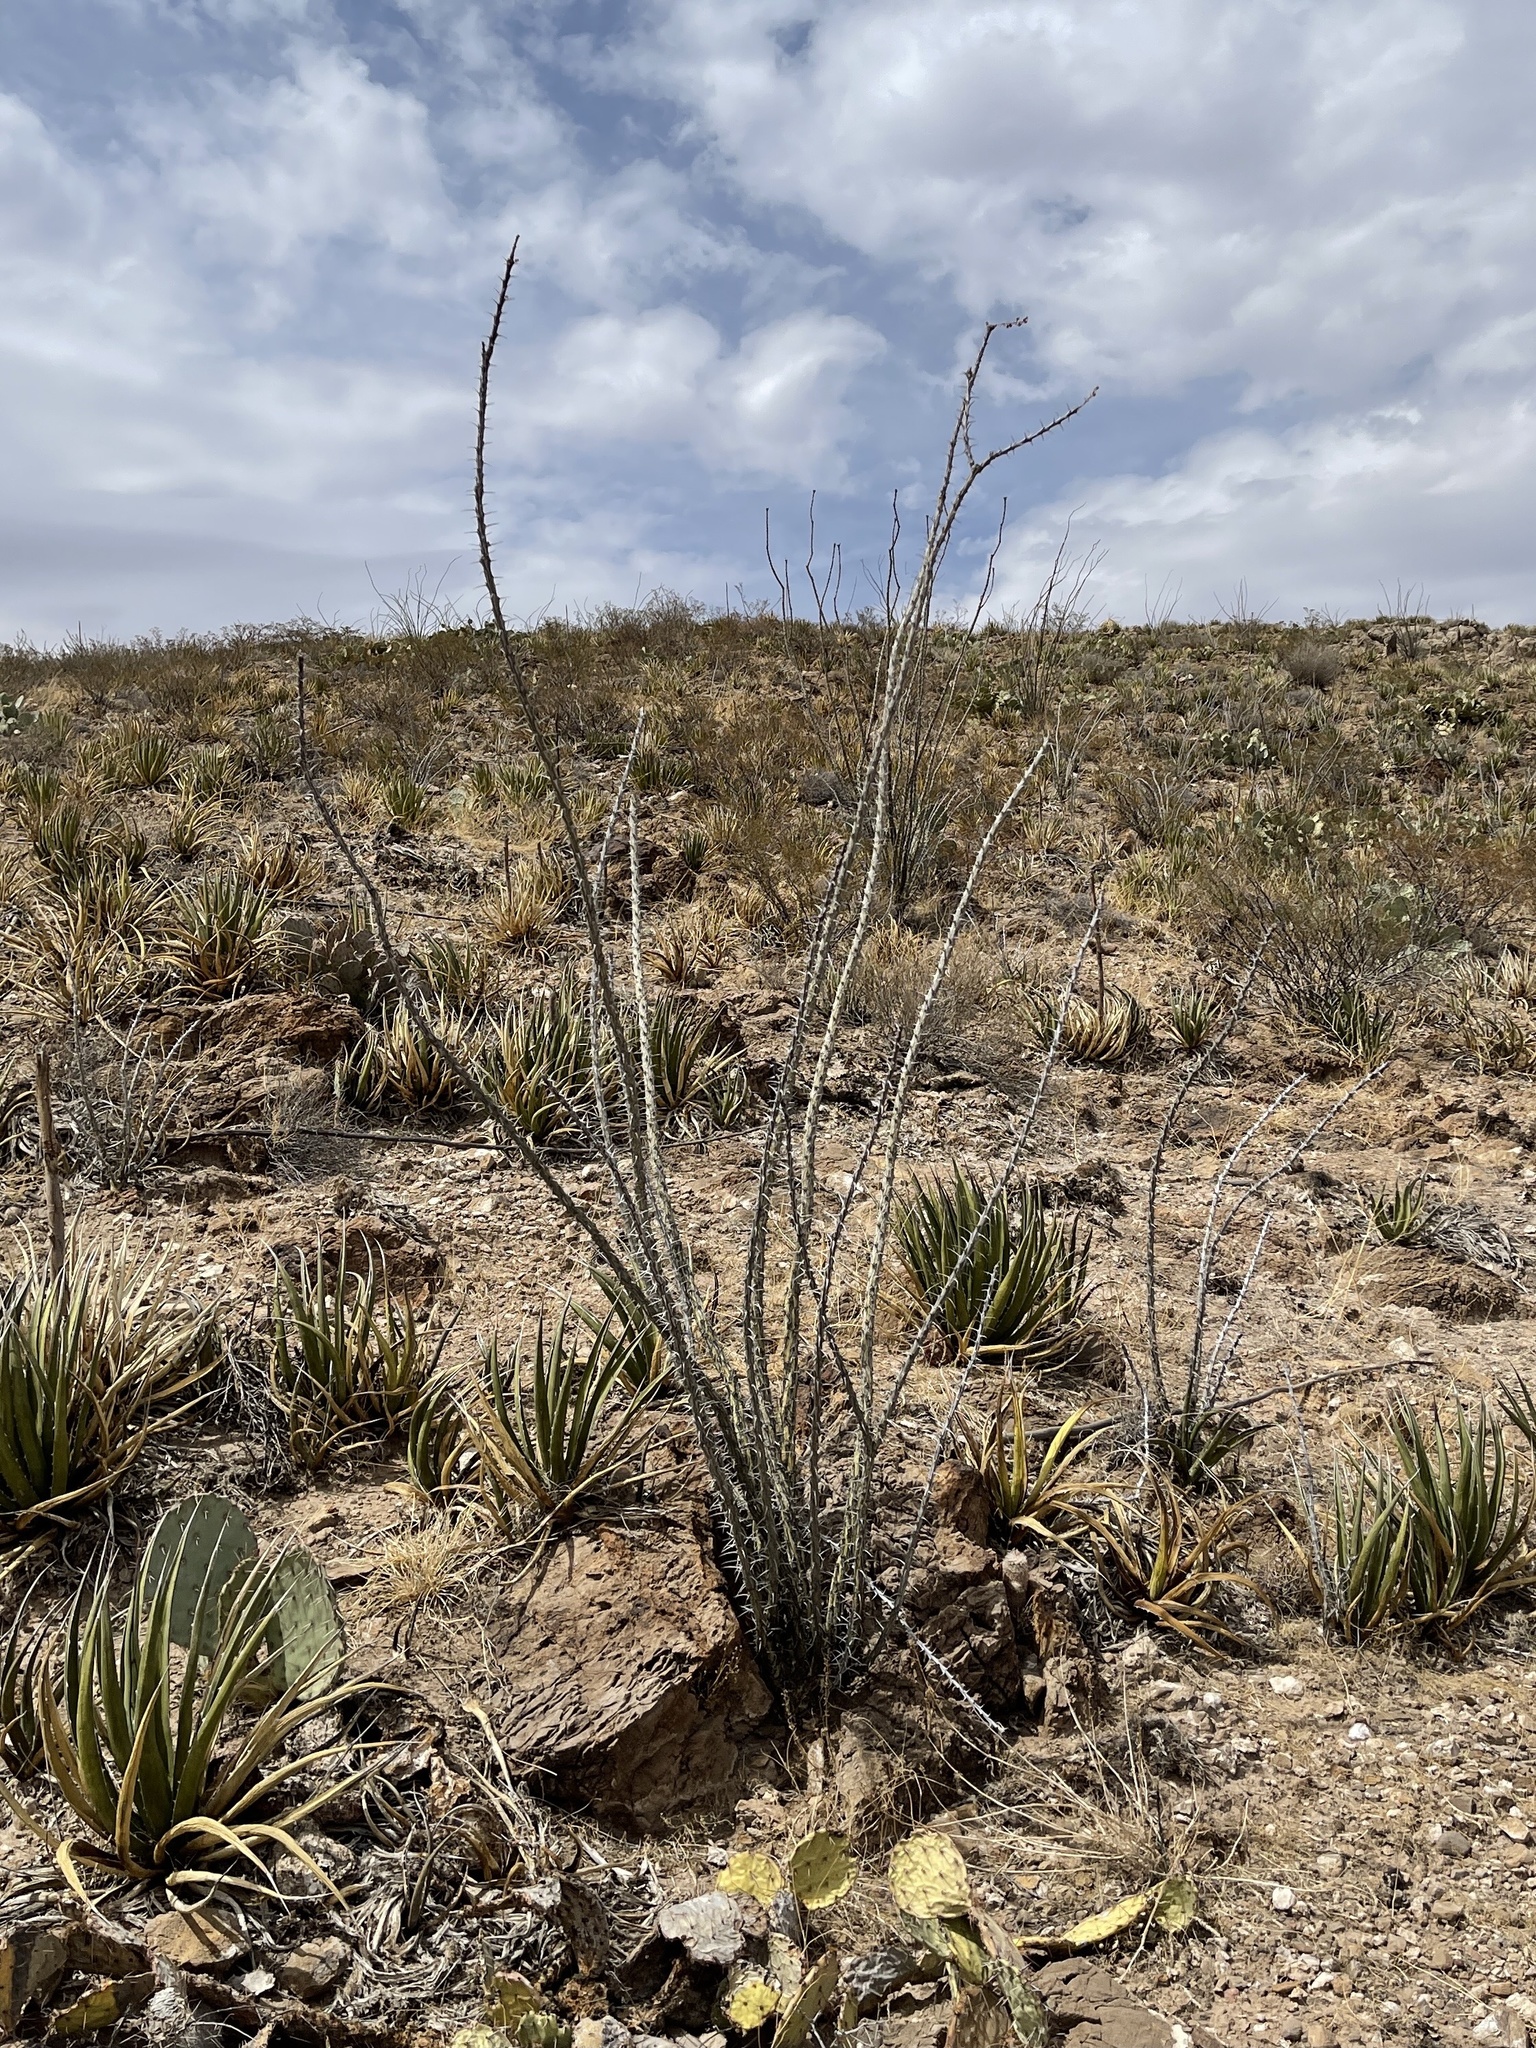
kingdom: Plantae
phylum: Tracheophyta
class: Magnoliopsida
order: Ericales
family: Fouquieriaceae
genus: Fouquieria
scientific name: Fouquieria splendens
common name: Vine-cactus
